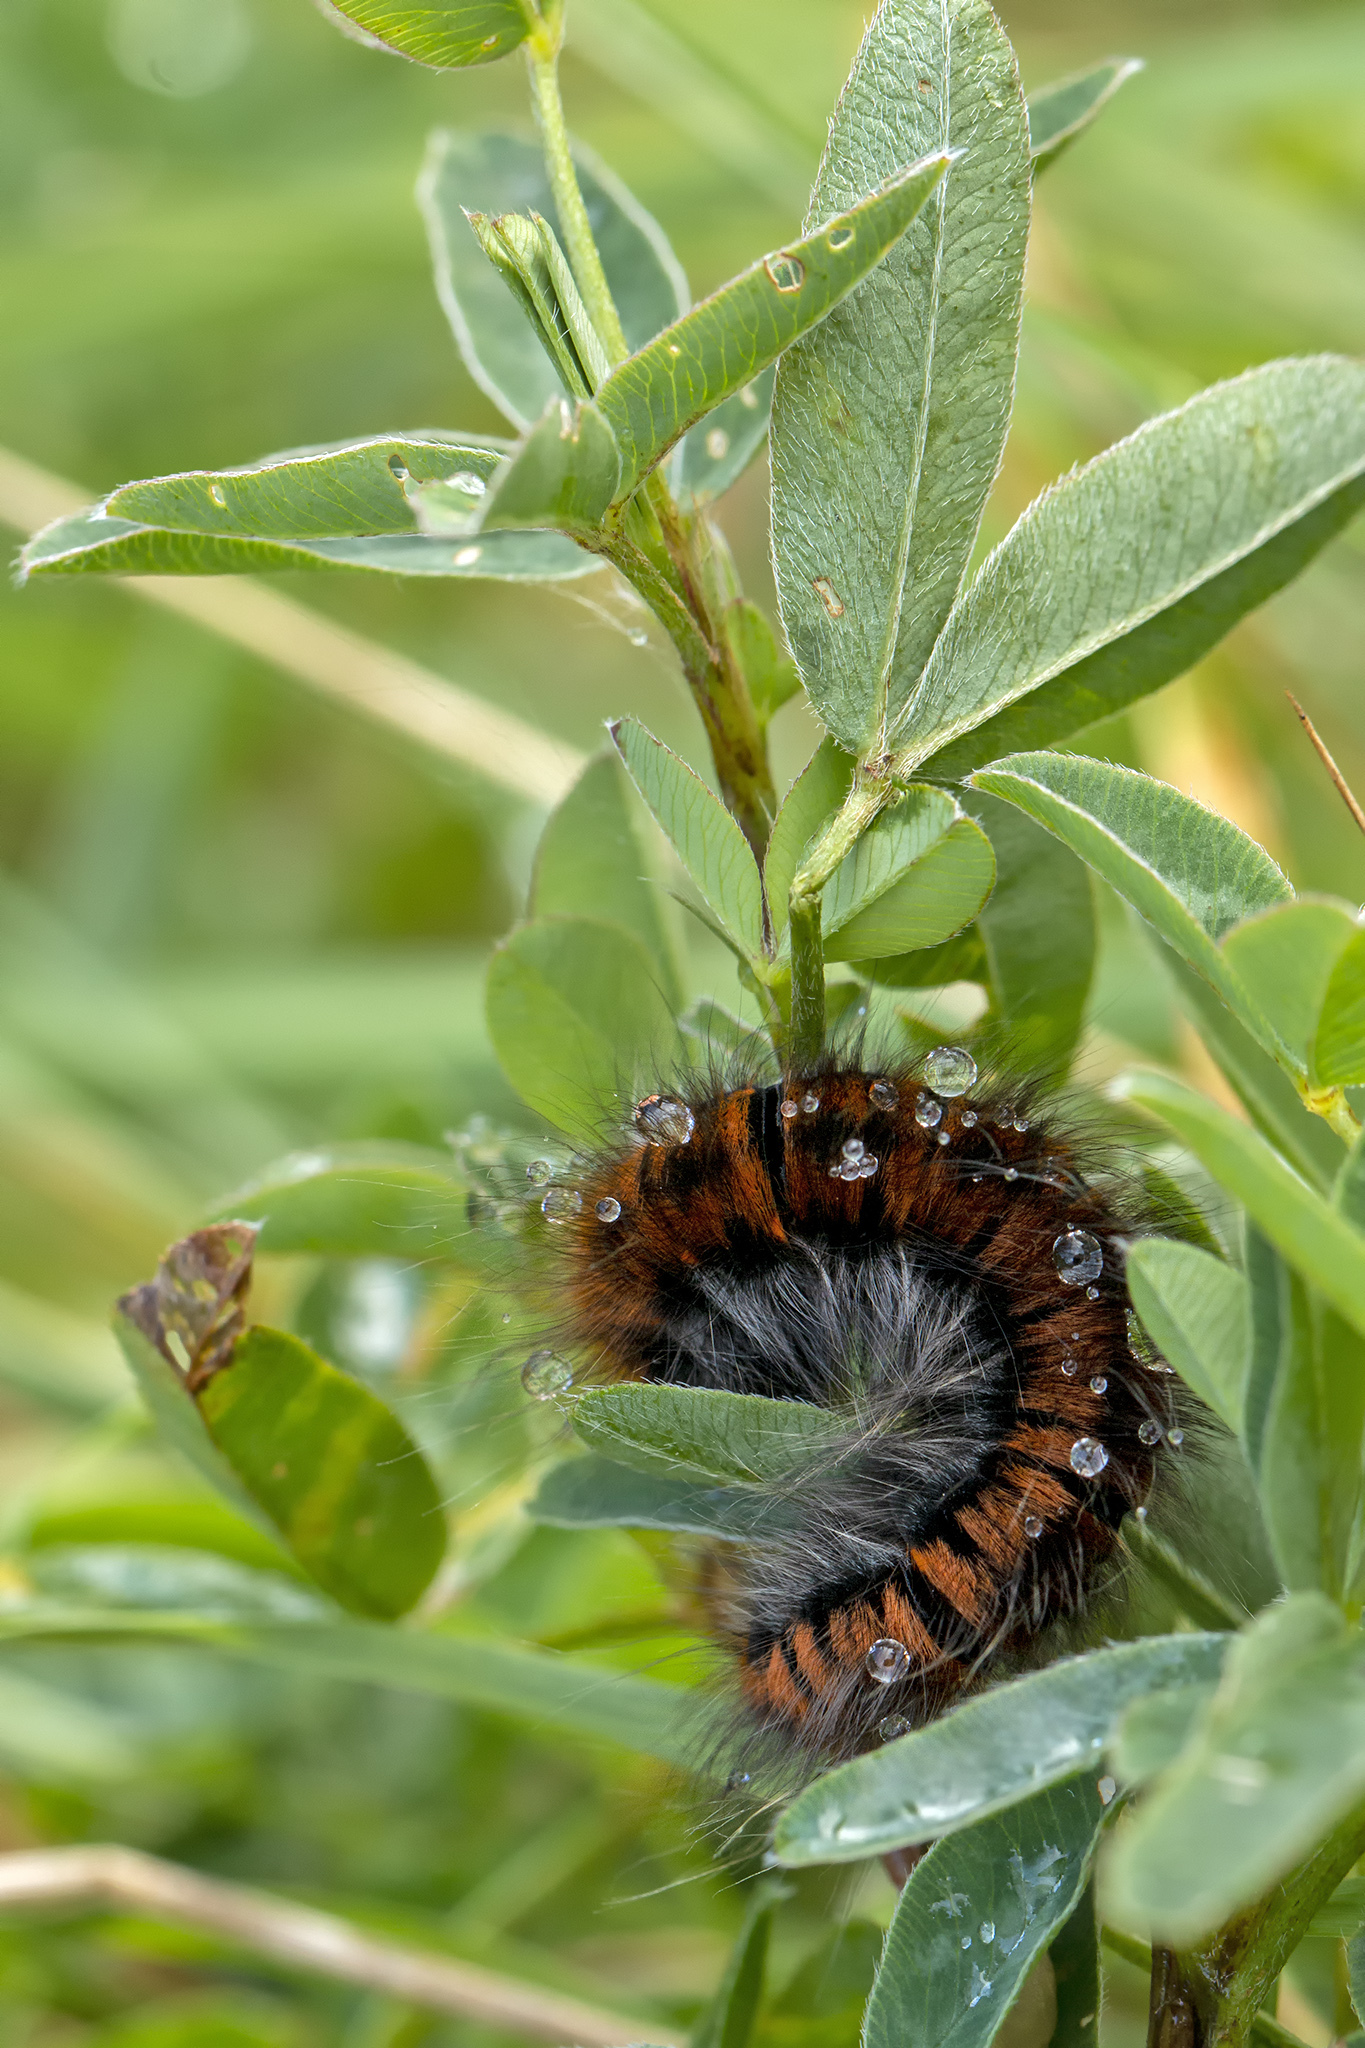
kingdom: Animalia
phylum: Arthropoda
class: Insecta
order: Lepidoptera
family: Lasiocampidae
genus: Macrothylacia
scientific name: Macrothylacia rubi
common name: Fox moth
